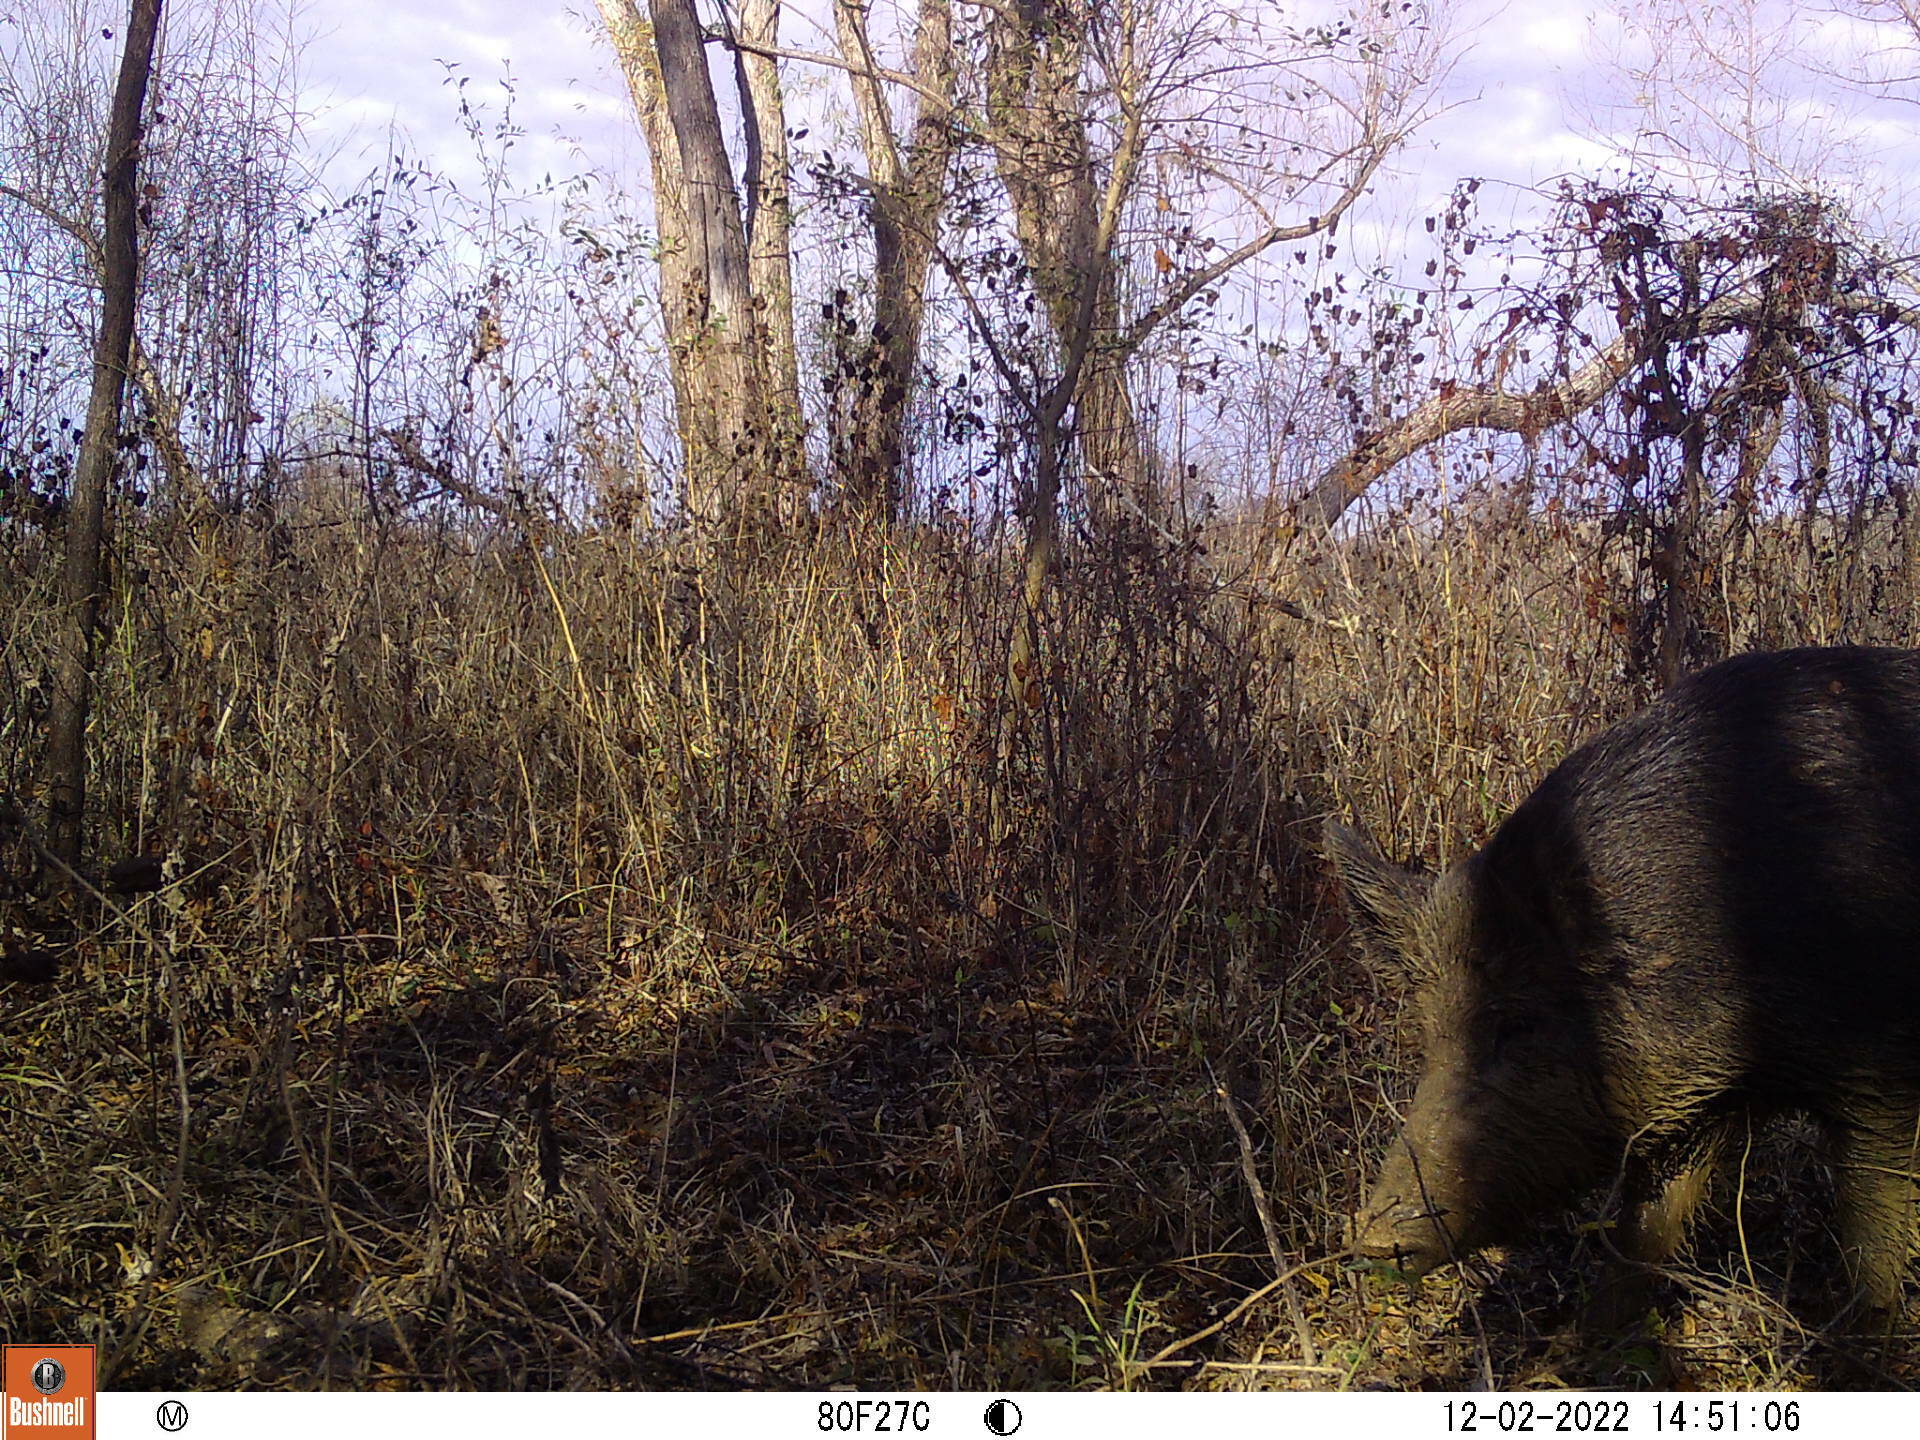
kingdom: Animalia
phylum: Chordata
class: Mammalia
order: Artiodactyla
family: Suidae
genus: Sus
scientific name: Sus scrofa
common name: Wild boar
